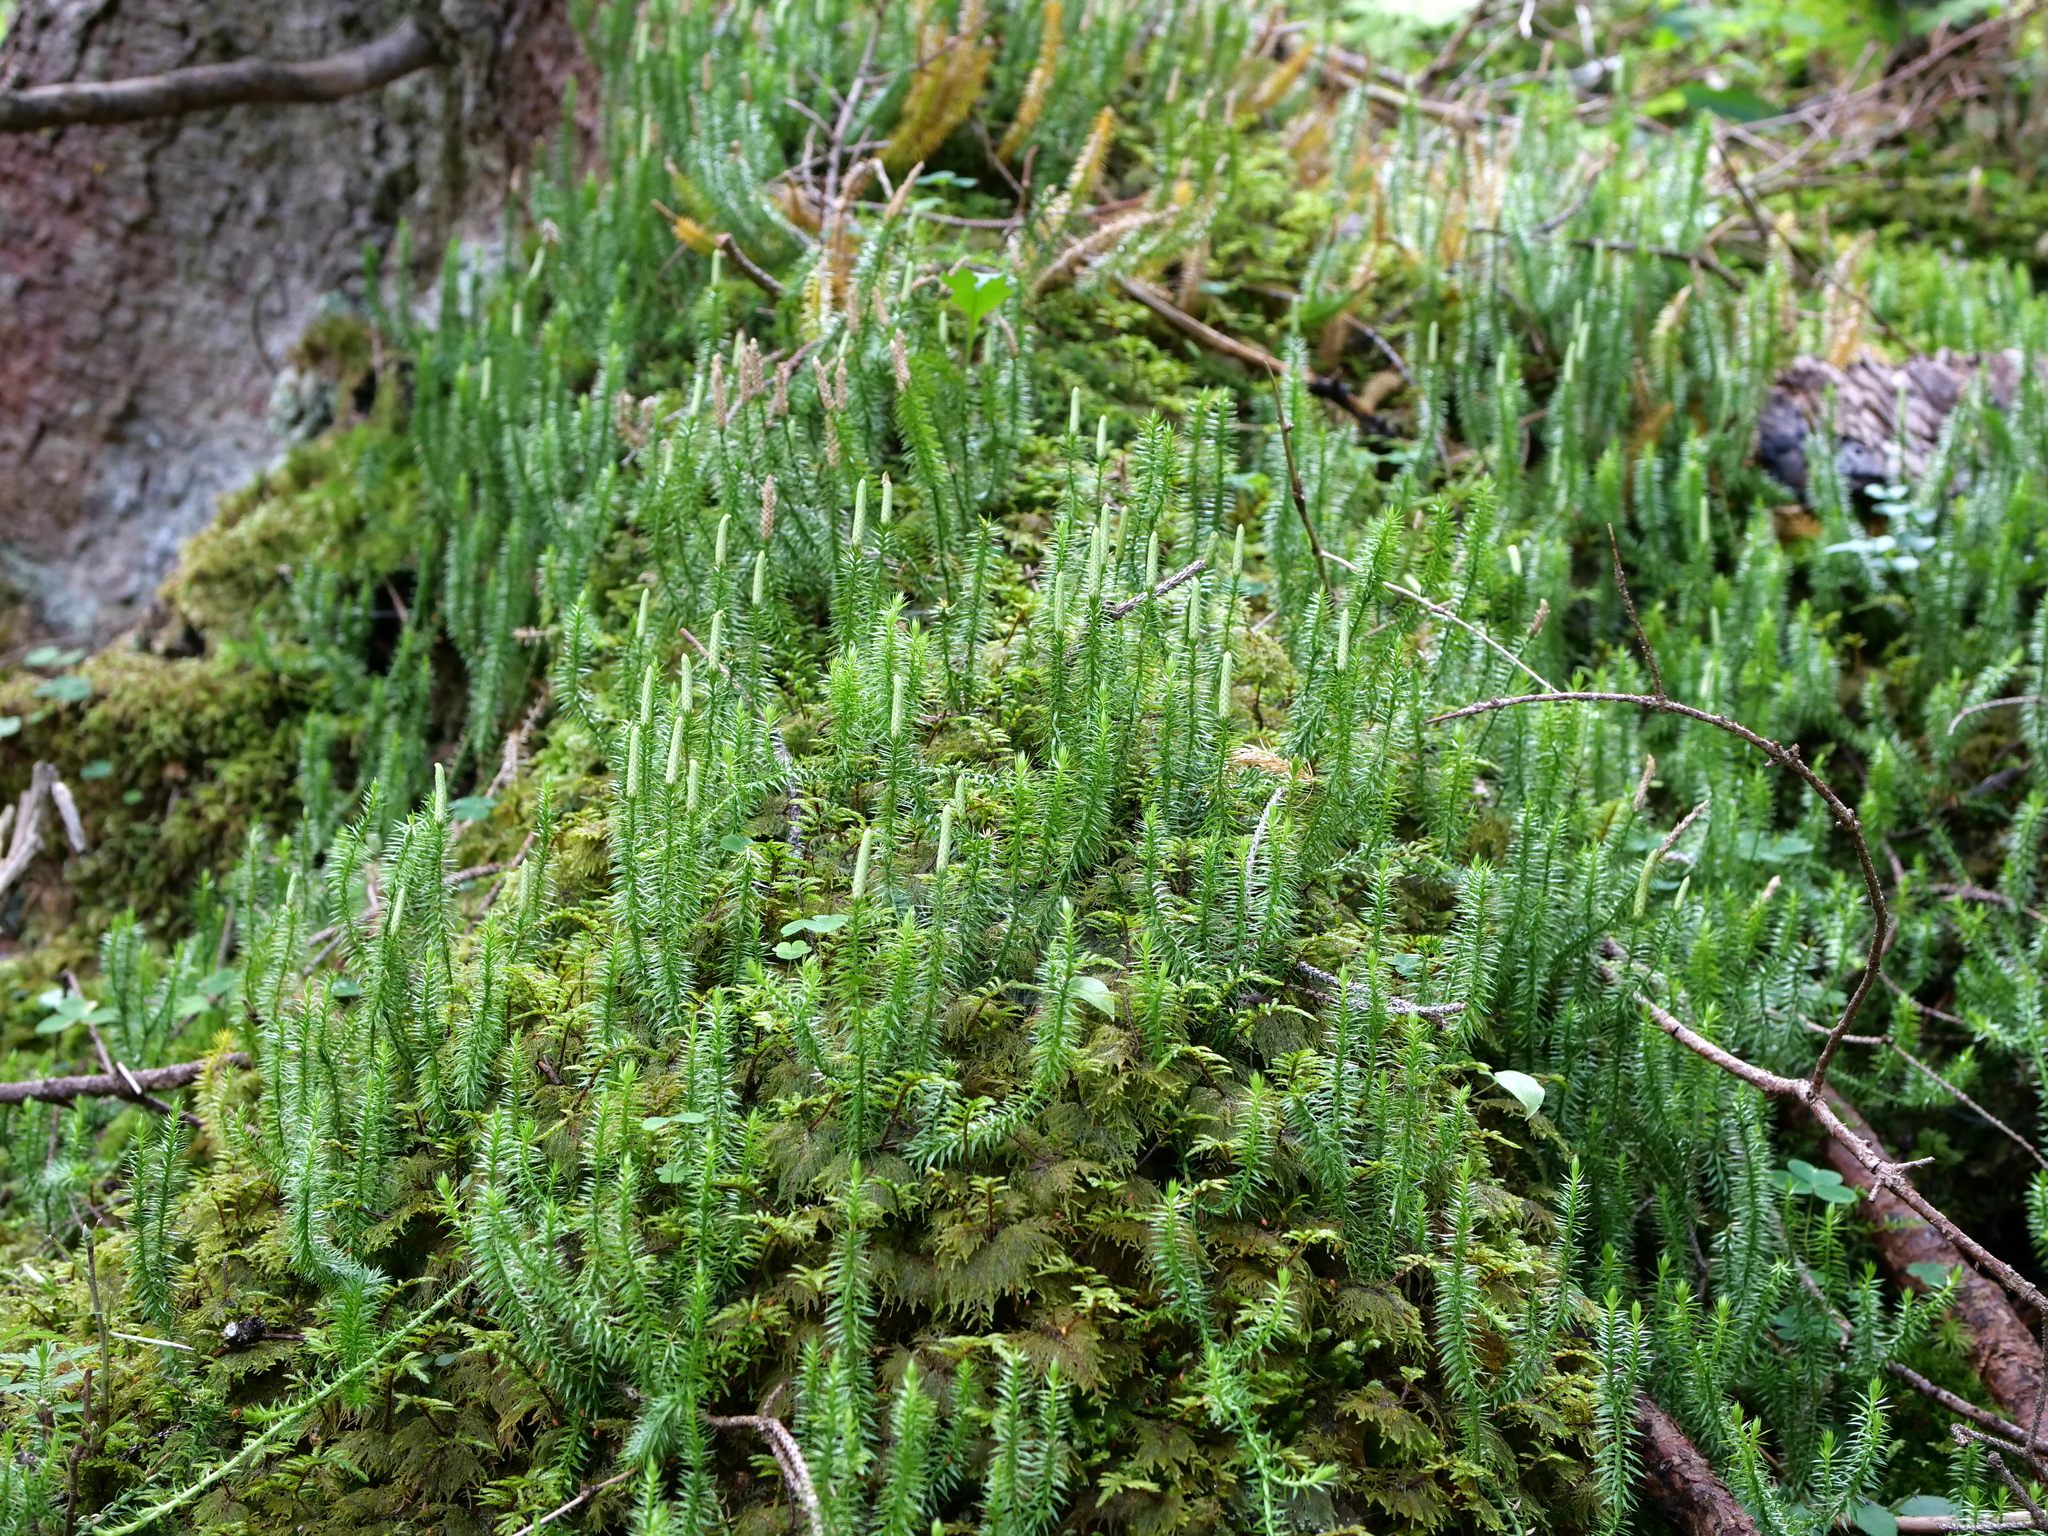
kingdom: Plantae
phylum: Tracheophyta
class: Lycopodiopsida
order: Lycopodiales
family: Lycopodiaceae
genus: Spinulum
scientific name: Spinulum annotinum
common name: Interrupted club-moss
